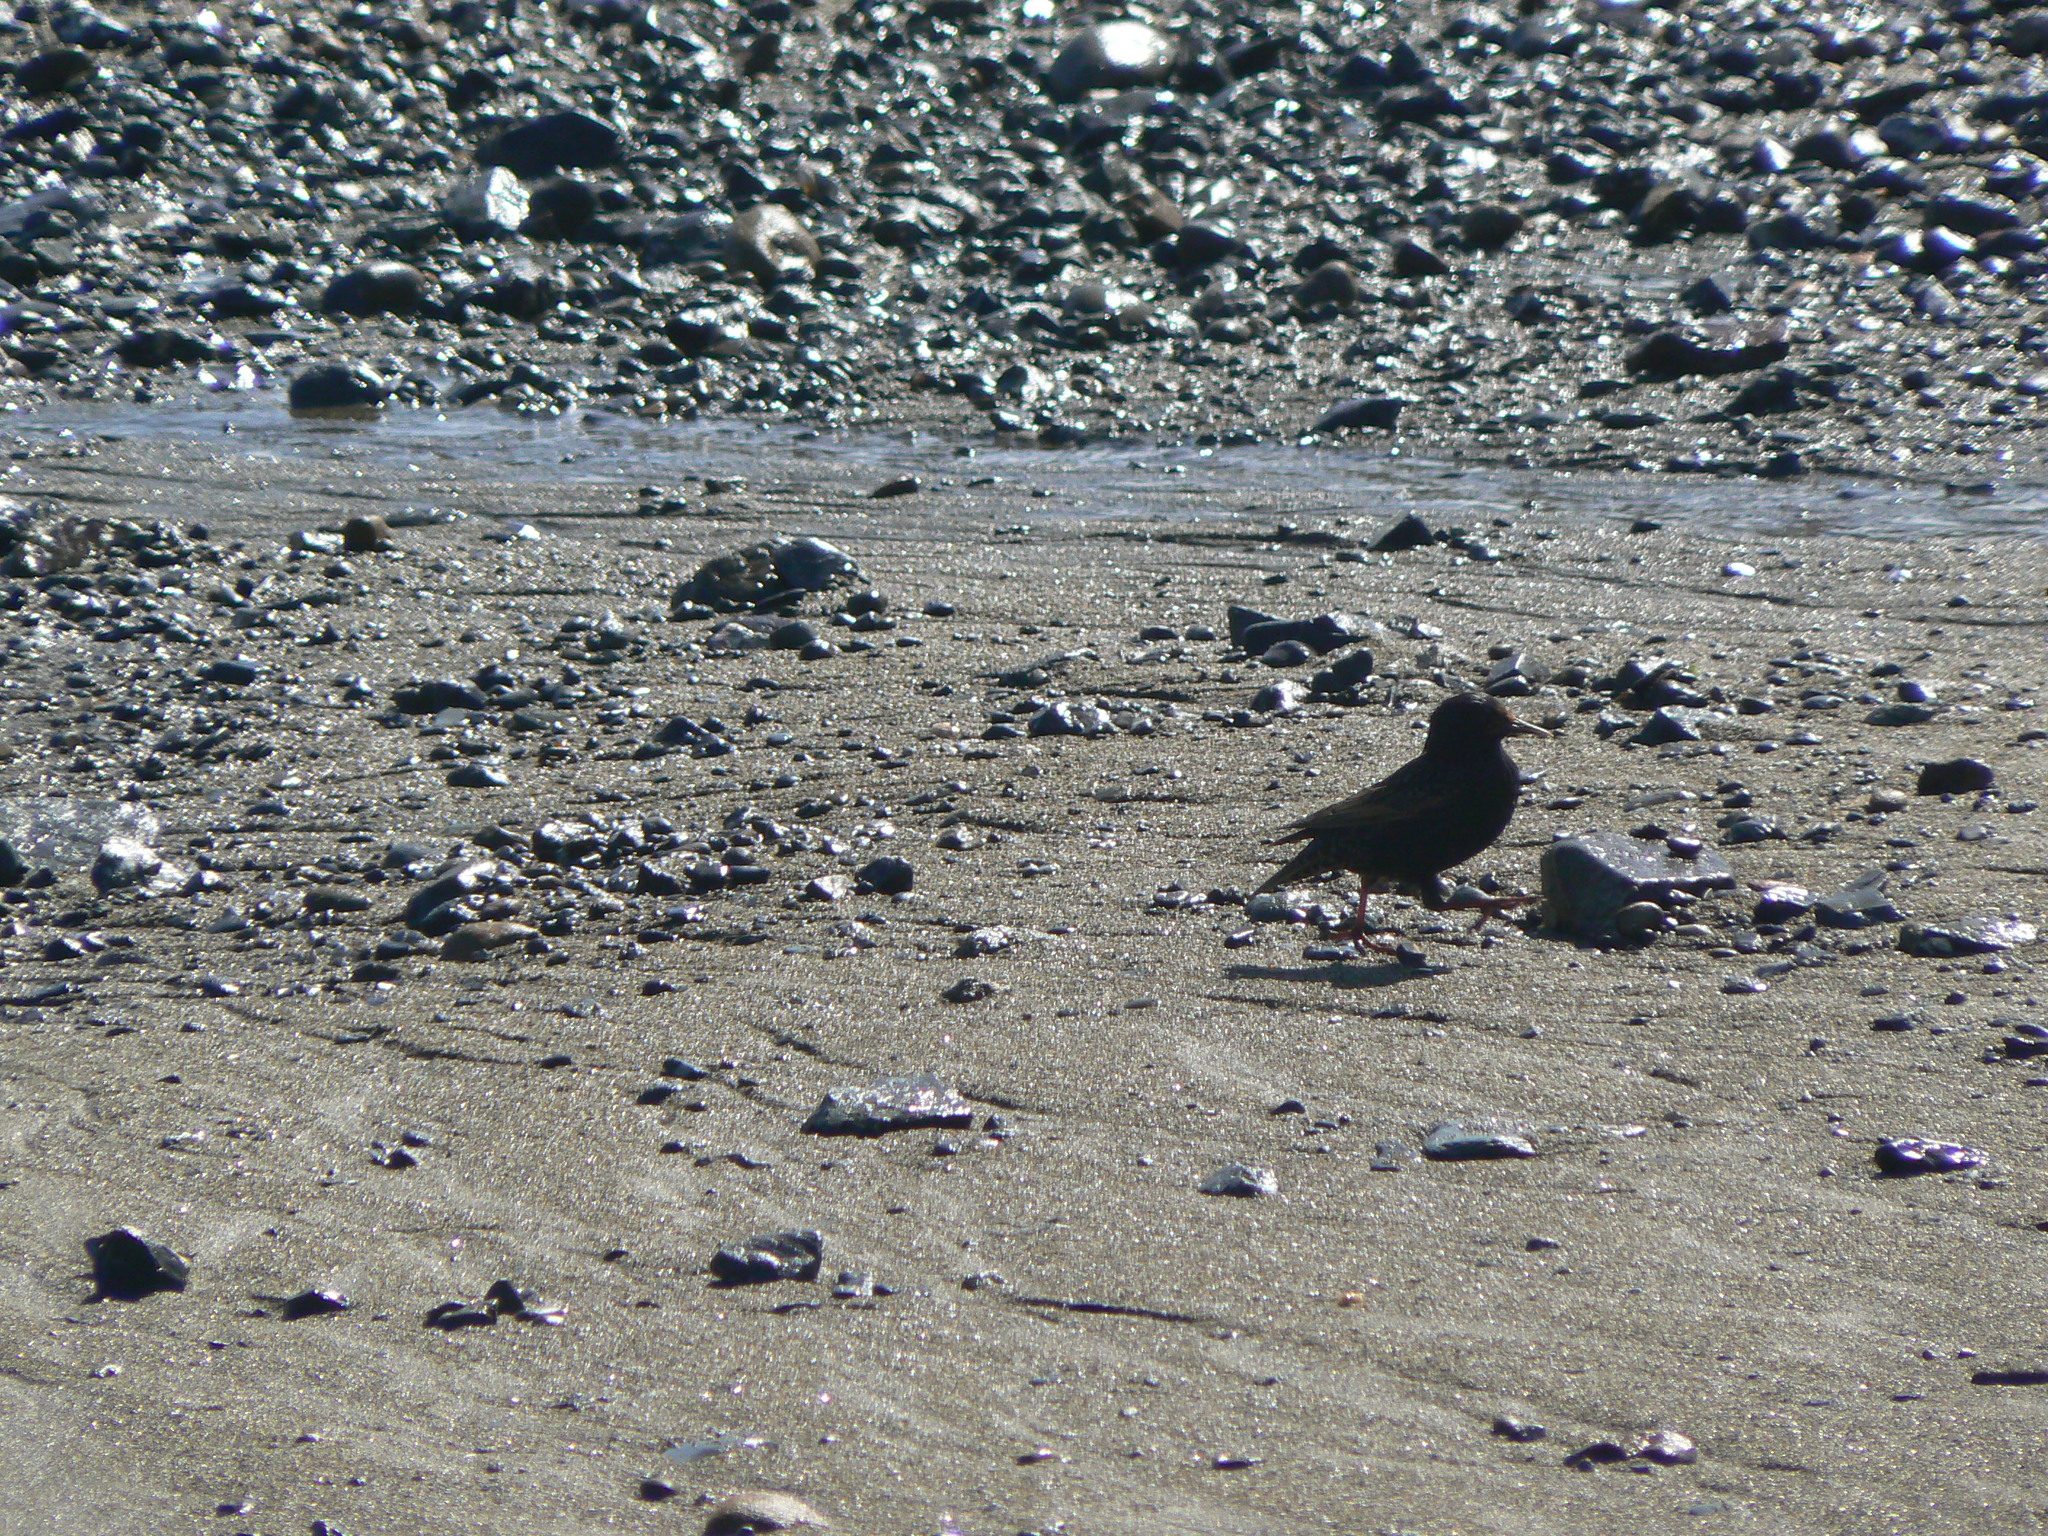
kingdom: Animalia
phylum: Chordata
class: Aves
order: Passeriformes
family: Sturnidae
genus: Sturnus
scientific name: Sturnus vulgaris
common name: Common starling
